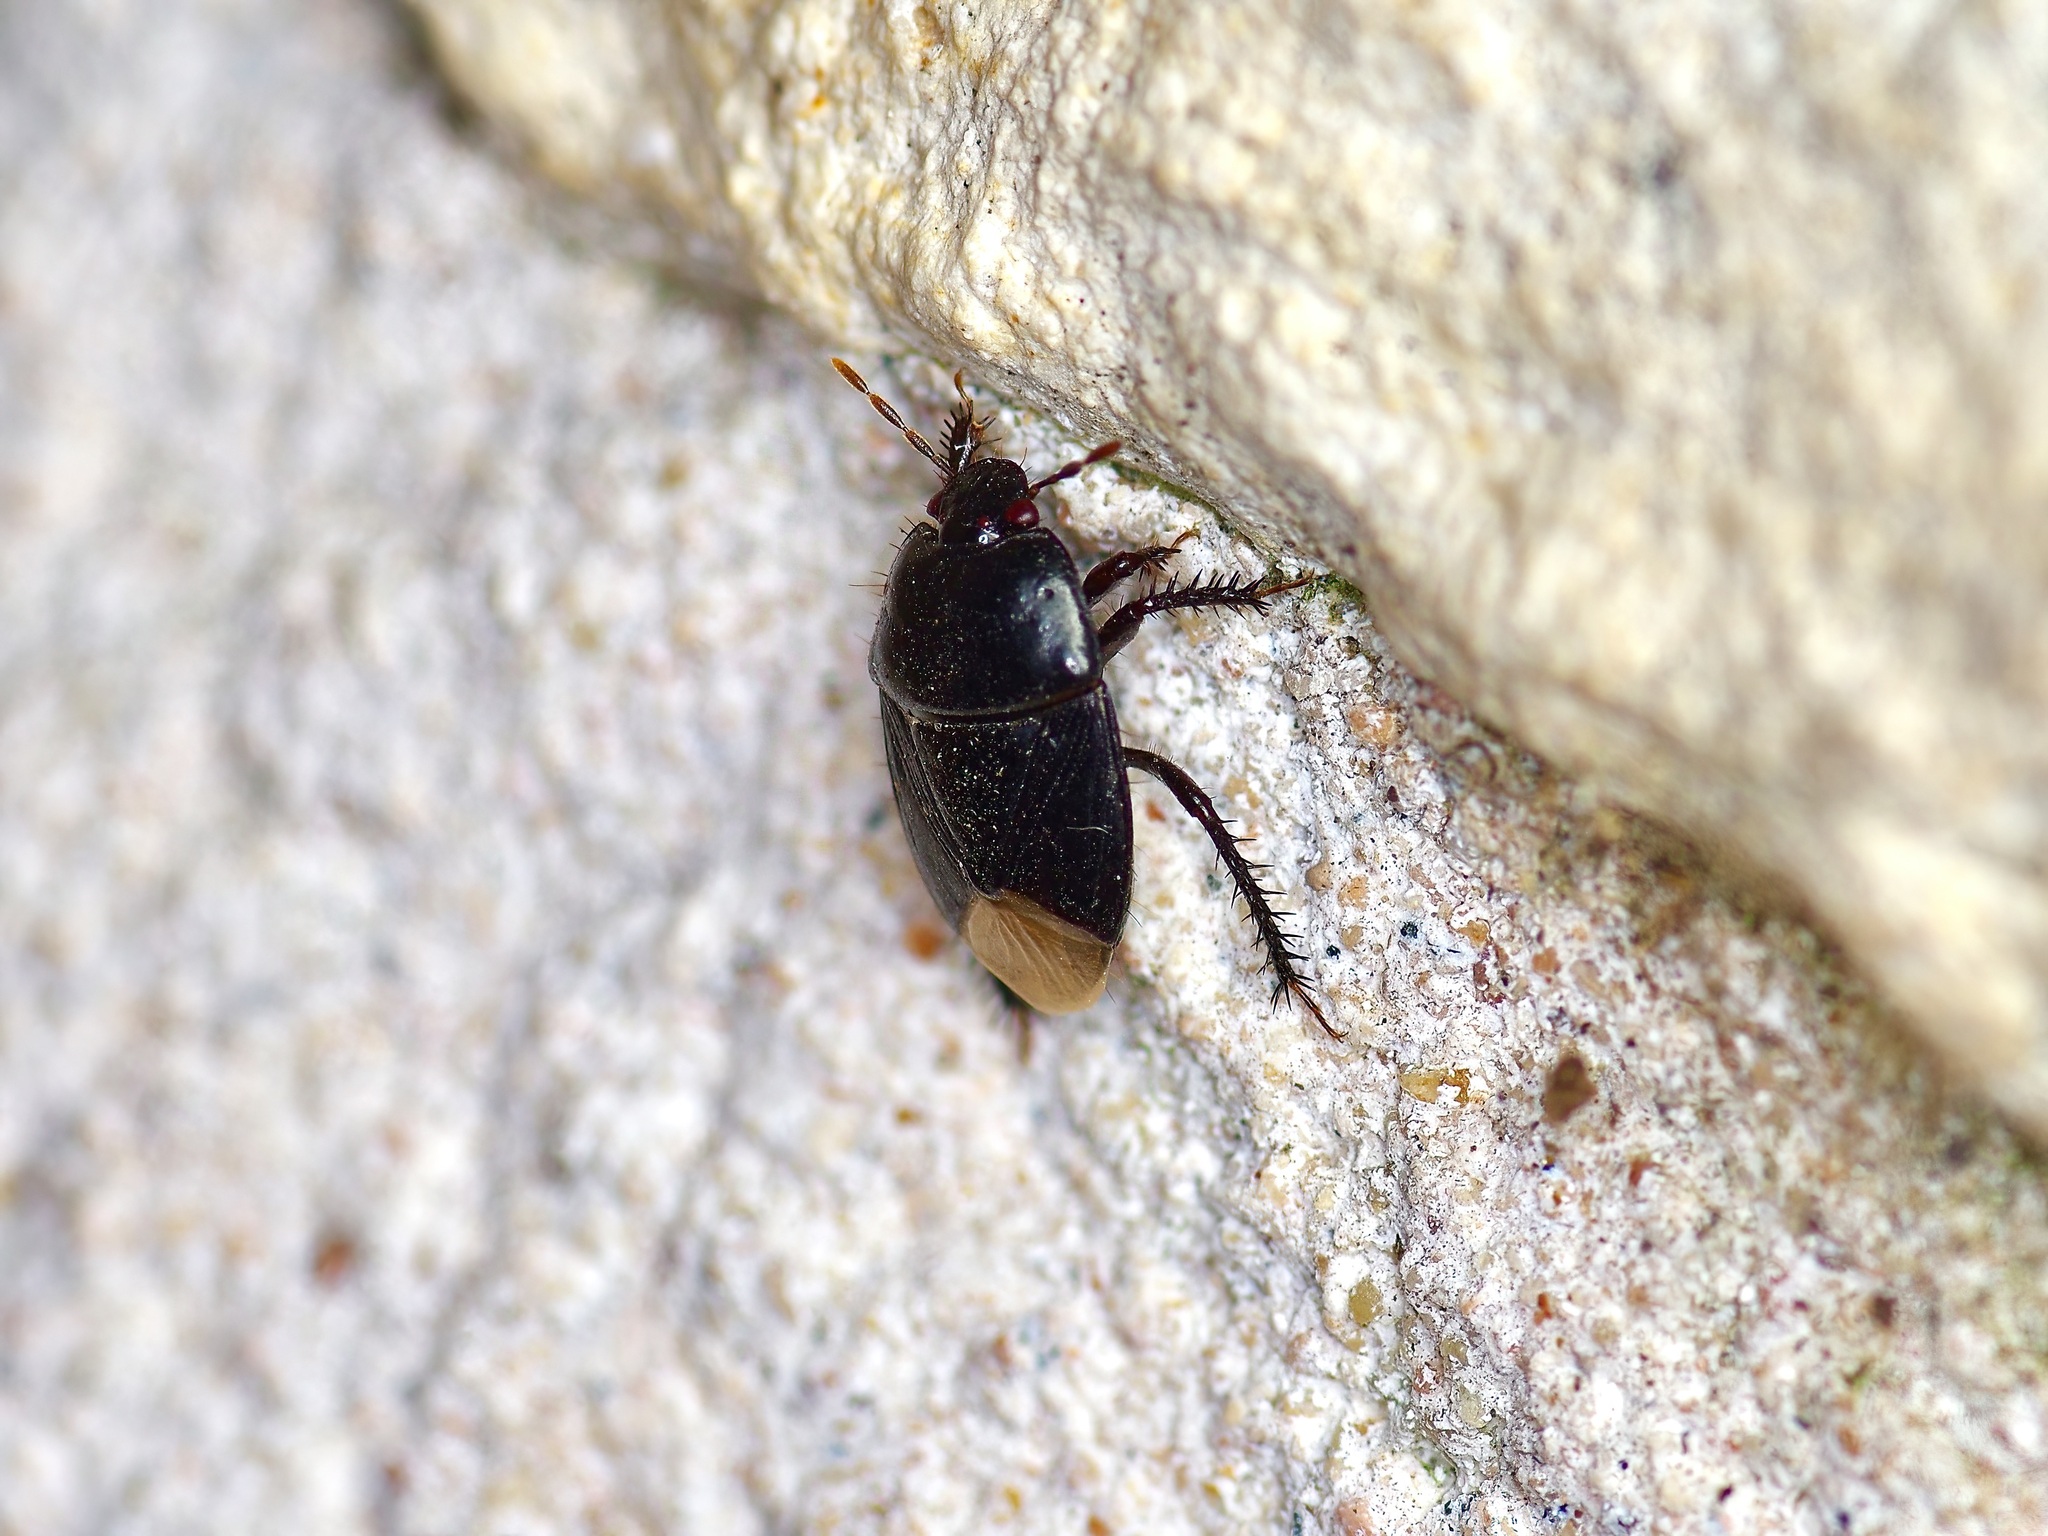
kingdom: Animalia
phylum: Arthropoda
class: Insecta
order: Hemiptera
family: Cydnidae
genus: Pangaeus
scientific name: Pangaeus bilineatus
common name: Burrower bug
